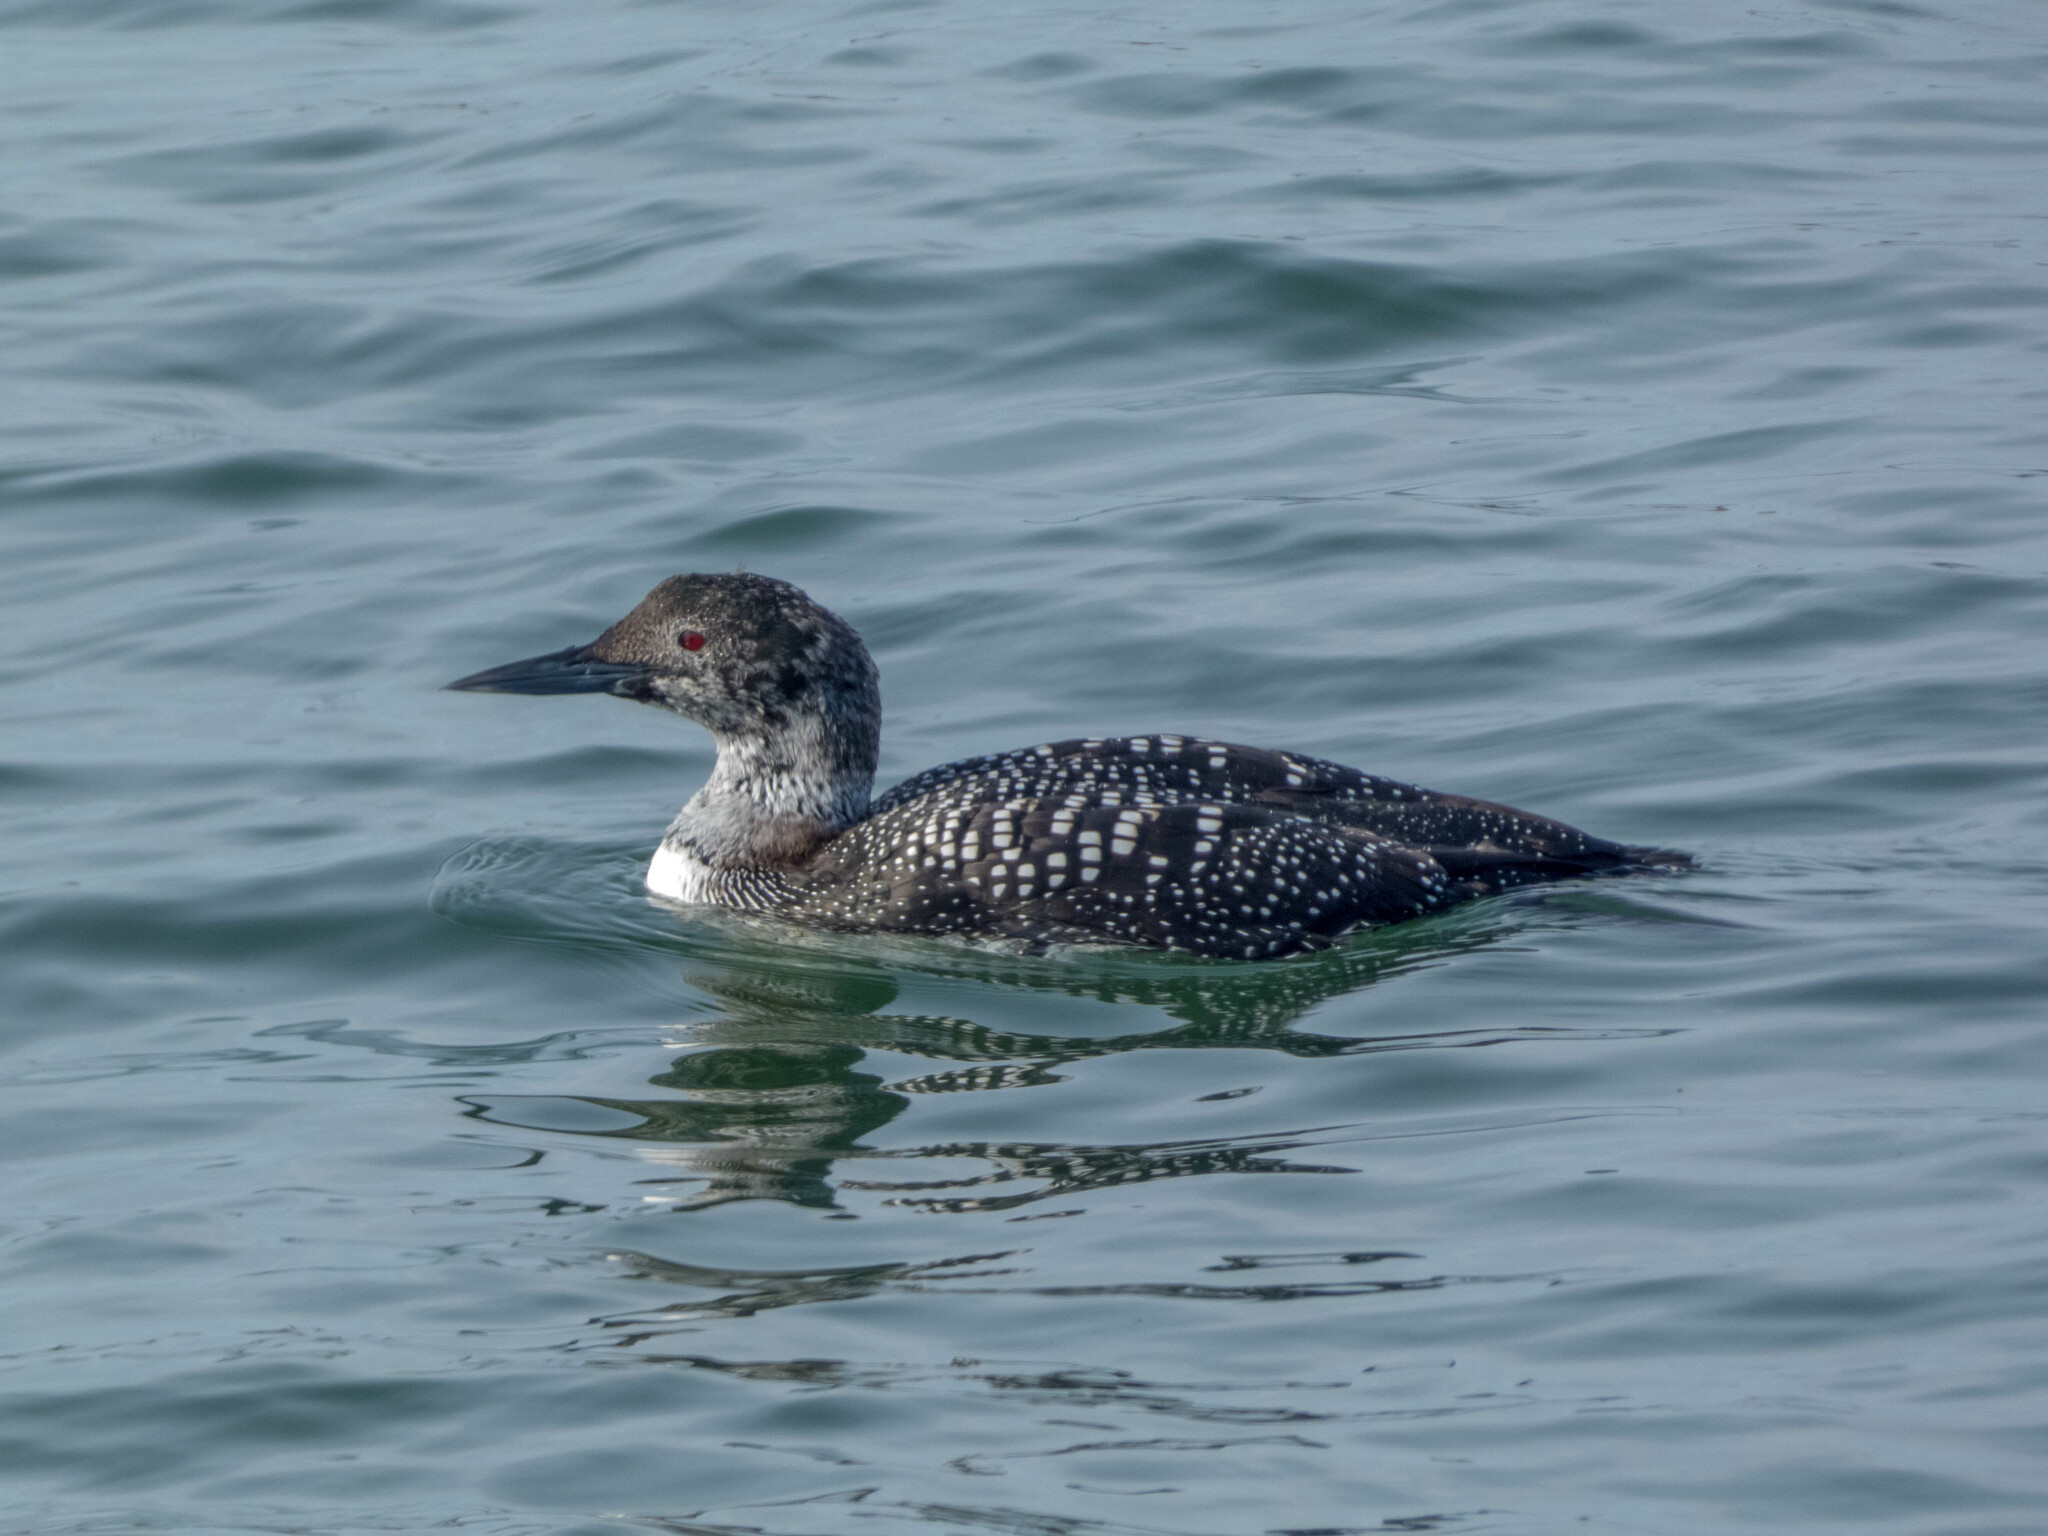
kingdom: Animalia
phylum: Chordata
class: Aves
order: Gaviiformes
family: Gaviidae
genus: Gavia
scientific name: Gavia immer
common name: Common loon
